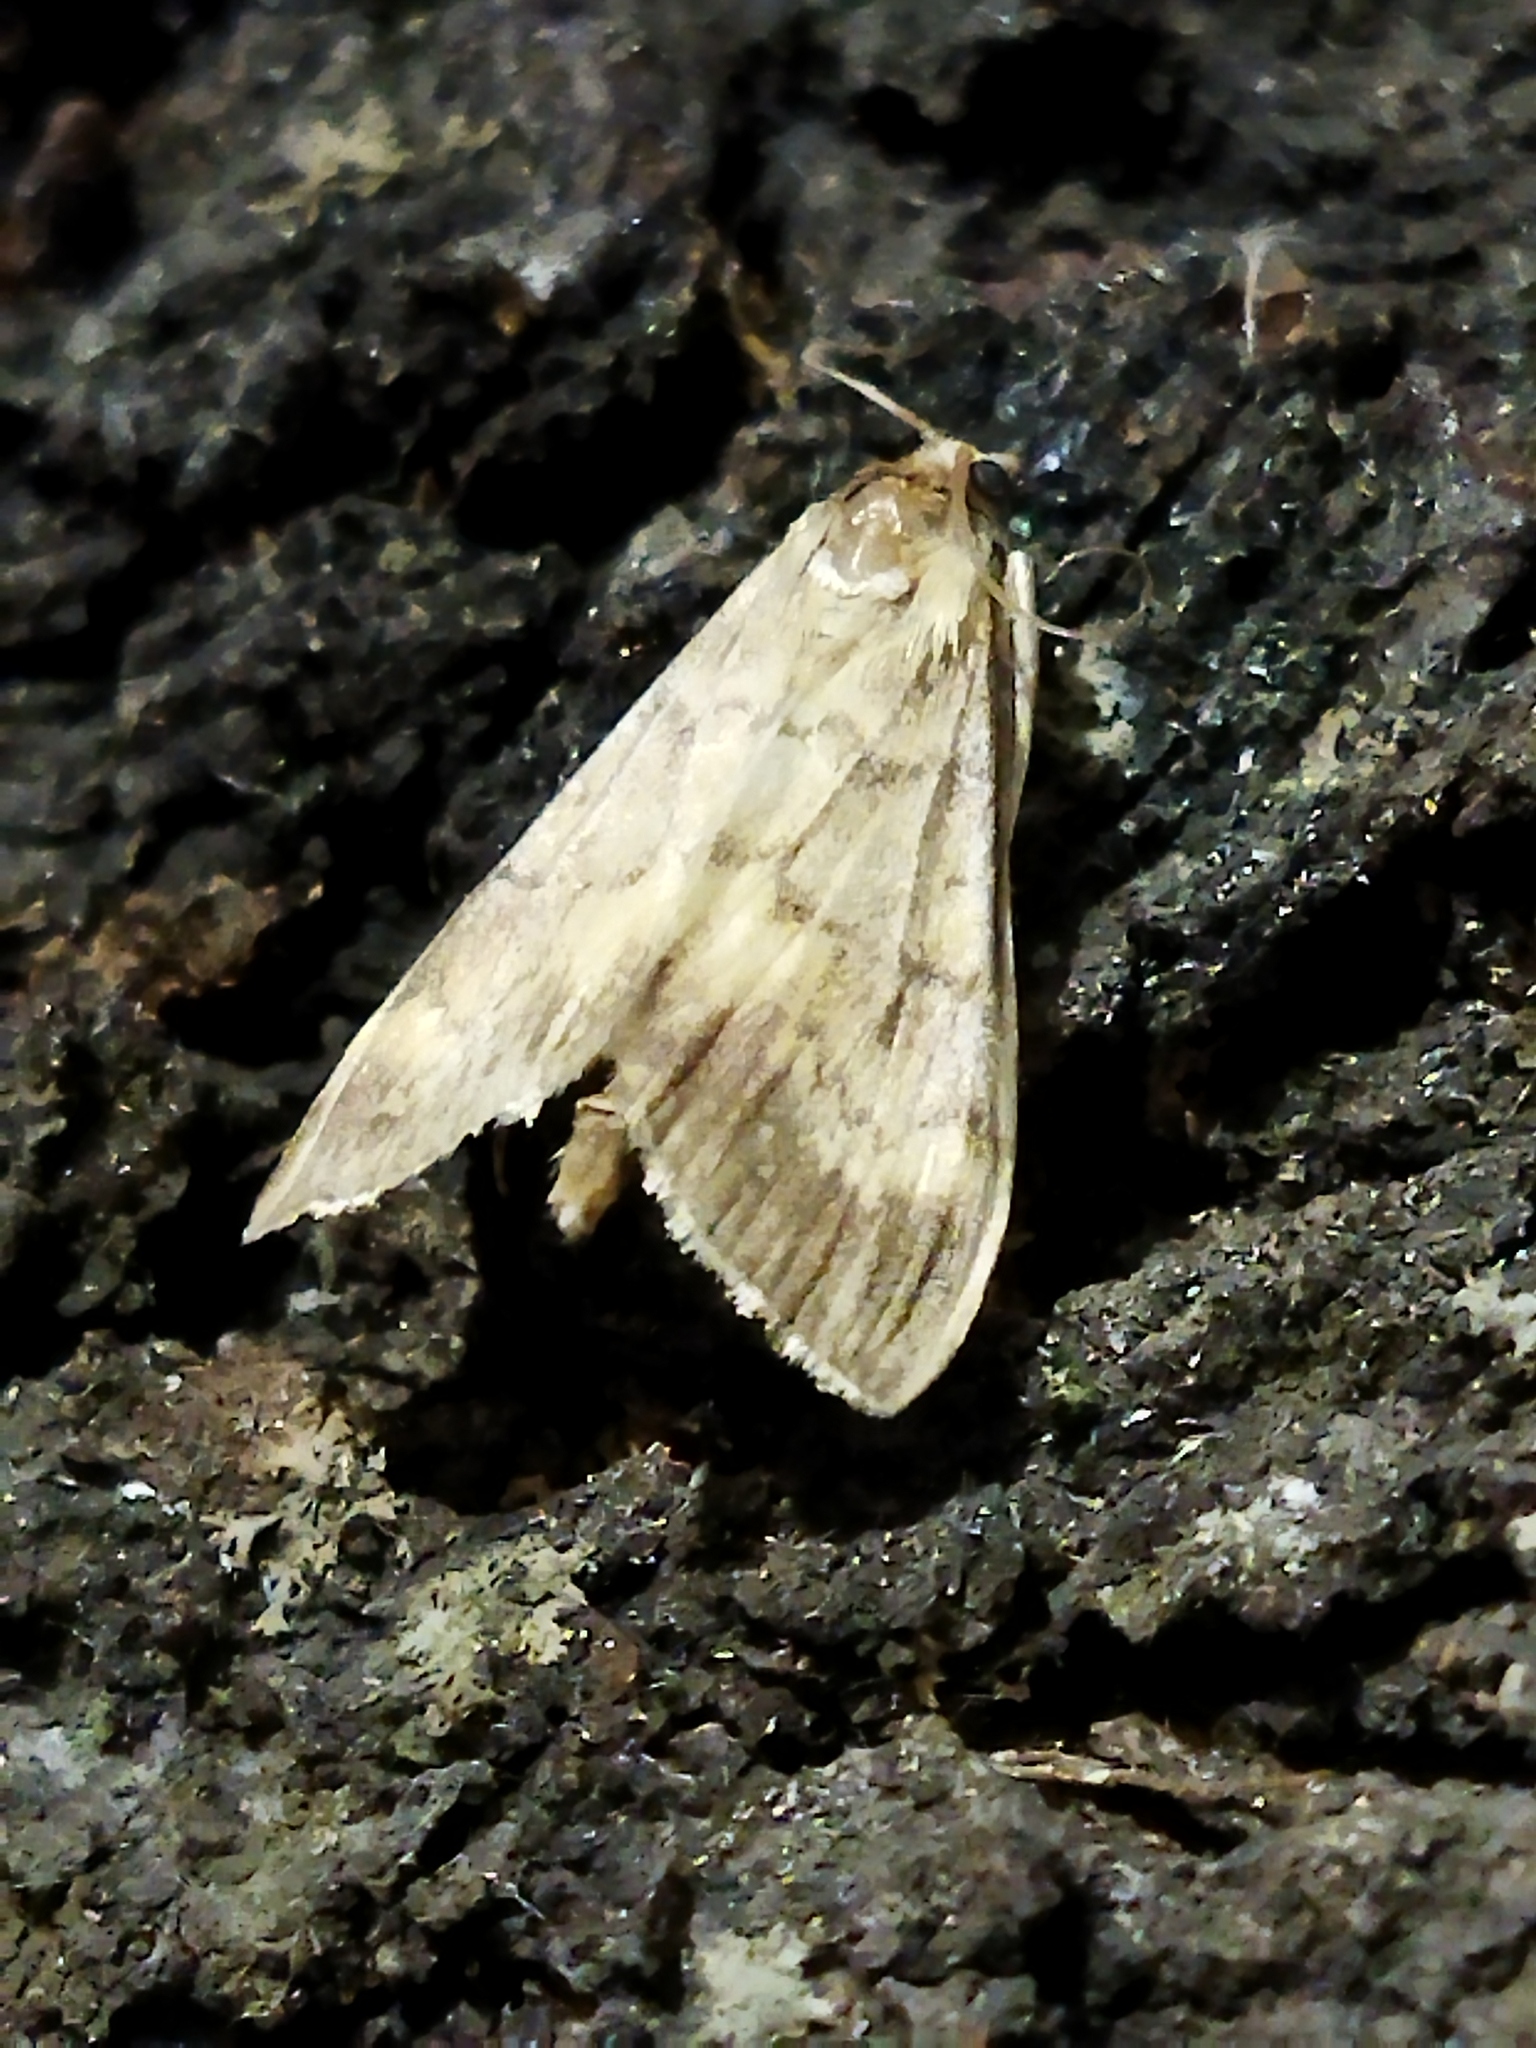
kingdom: Animalia
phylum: Arthropoda
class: Insecta
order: Lepidoptera
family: Crambidae
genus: Ostrinia
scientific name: Ostrinia nubilalis
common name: European corn borer
